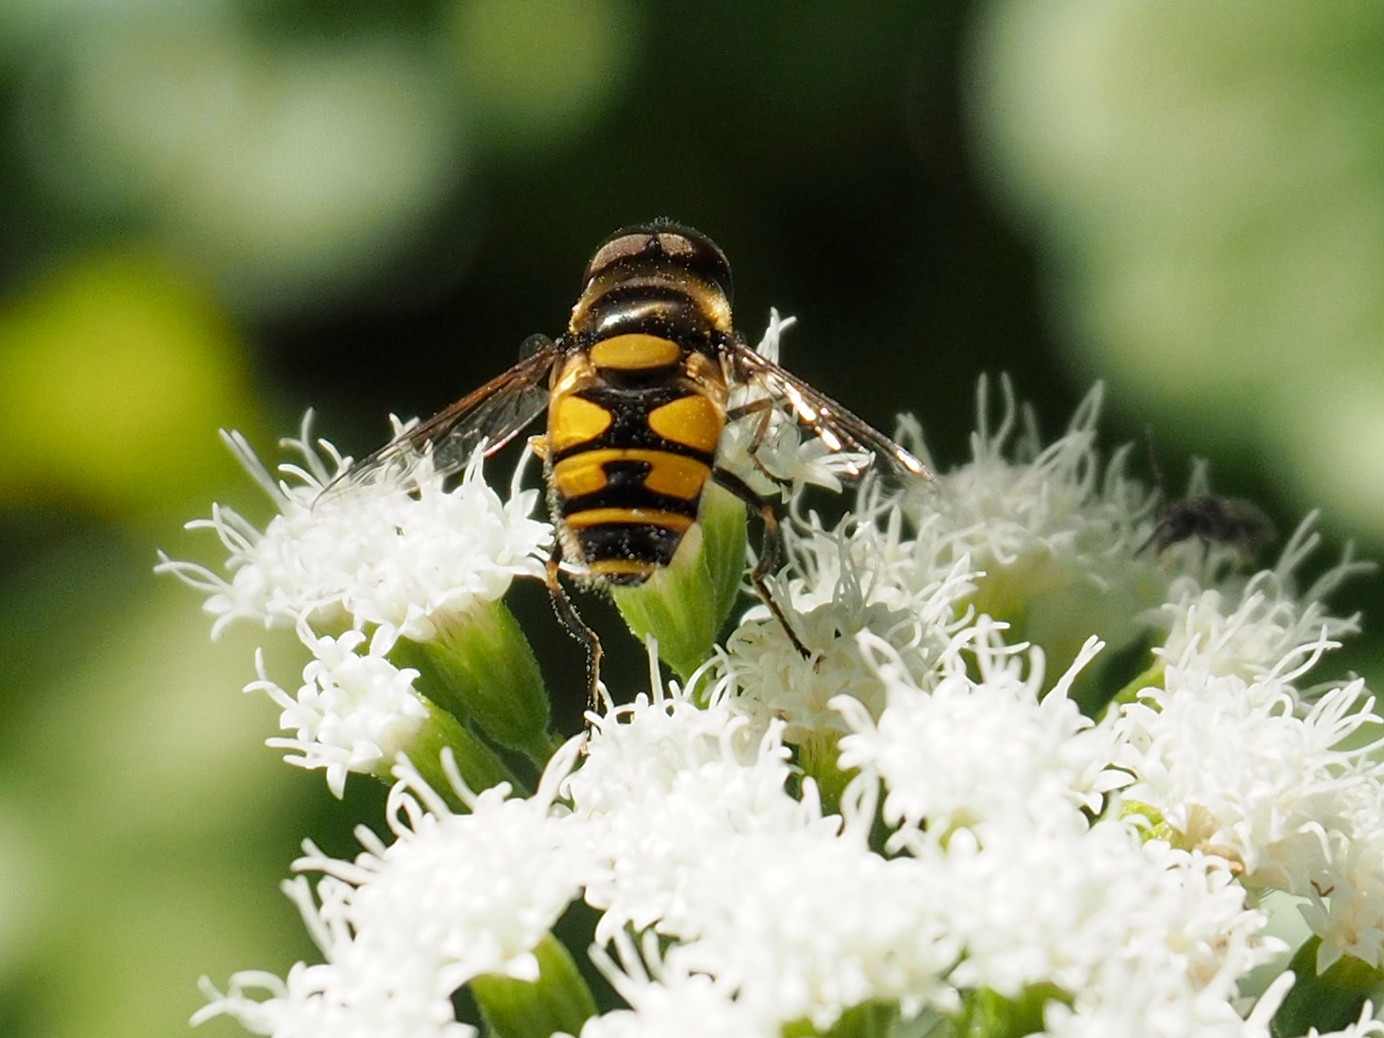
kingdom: Animalia
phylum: Arthropoda
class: Insecta
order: Diptera
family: Syrphidae
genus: Eristalis
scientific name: Eristalis transversa
